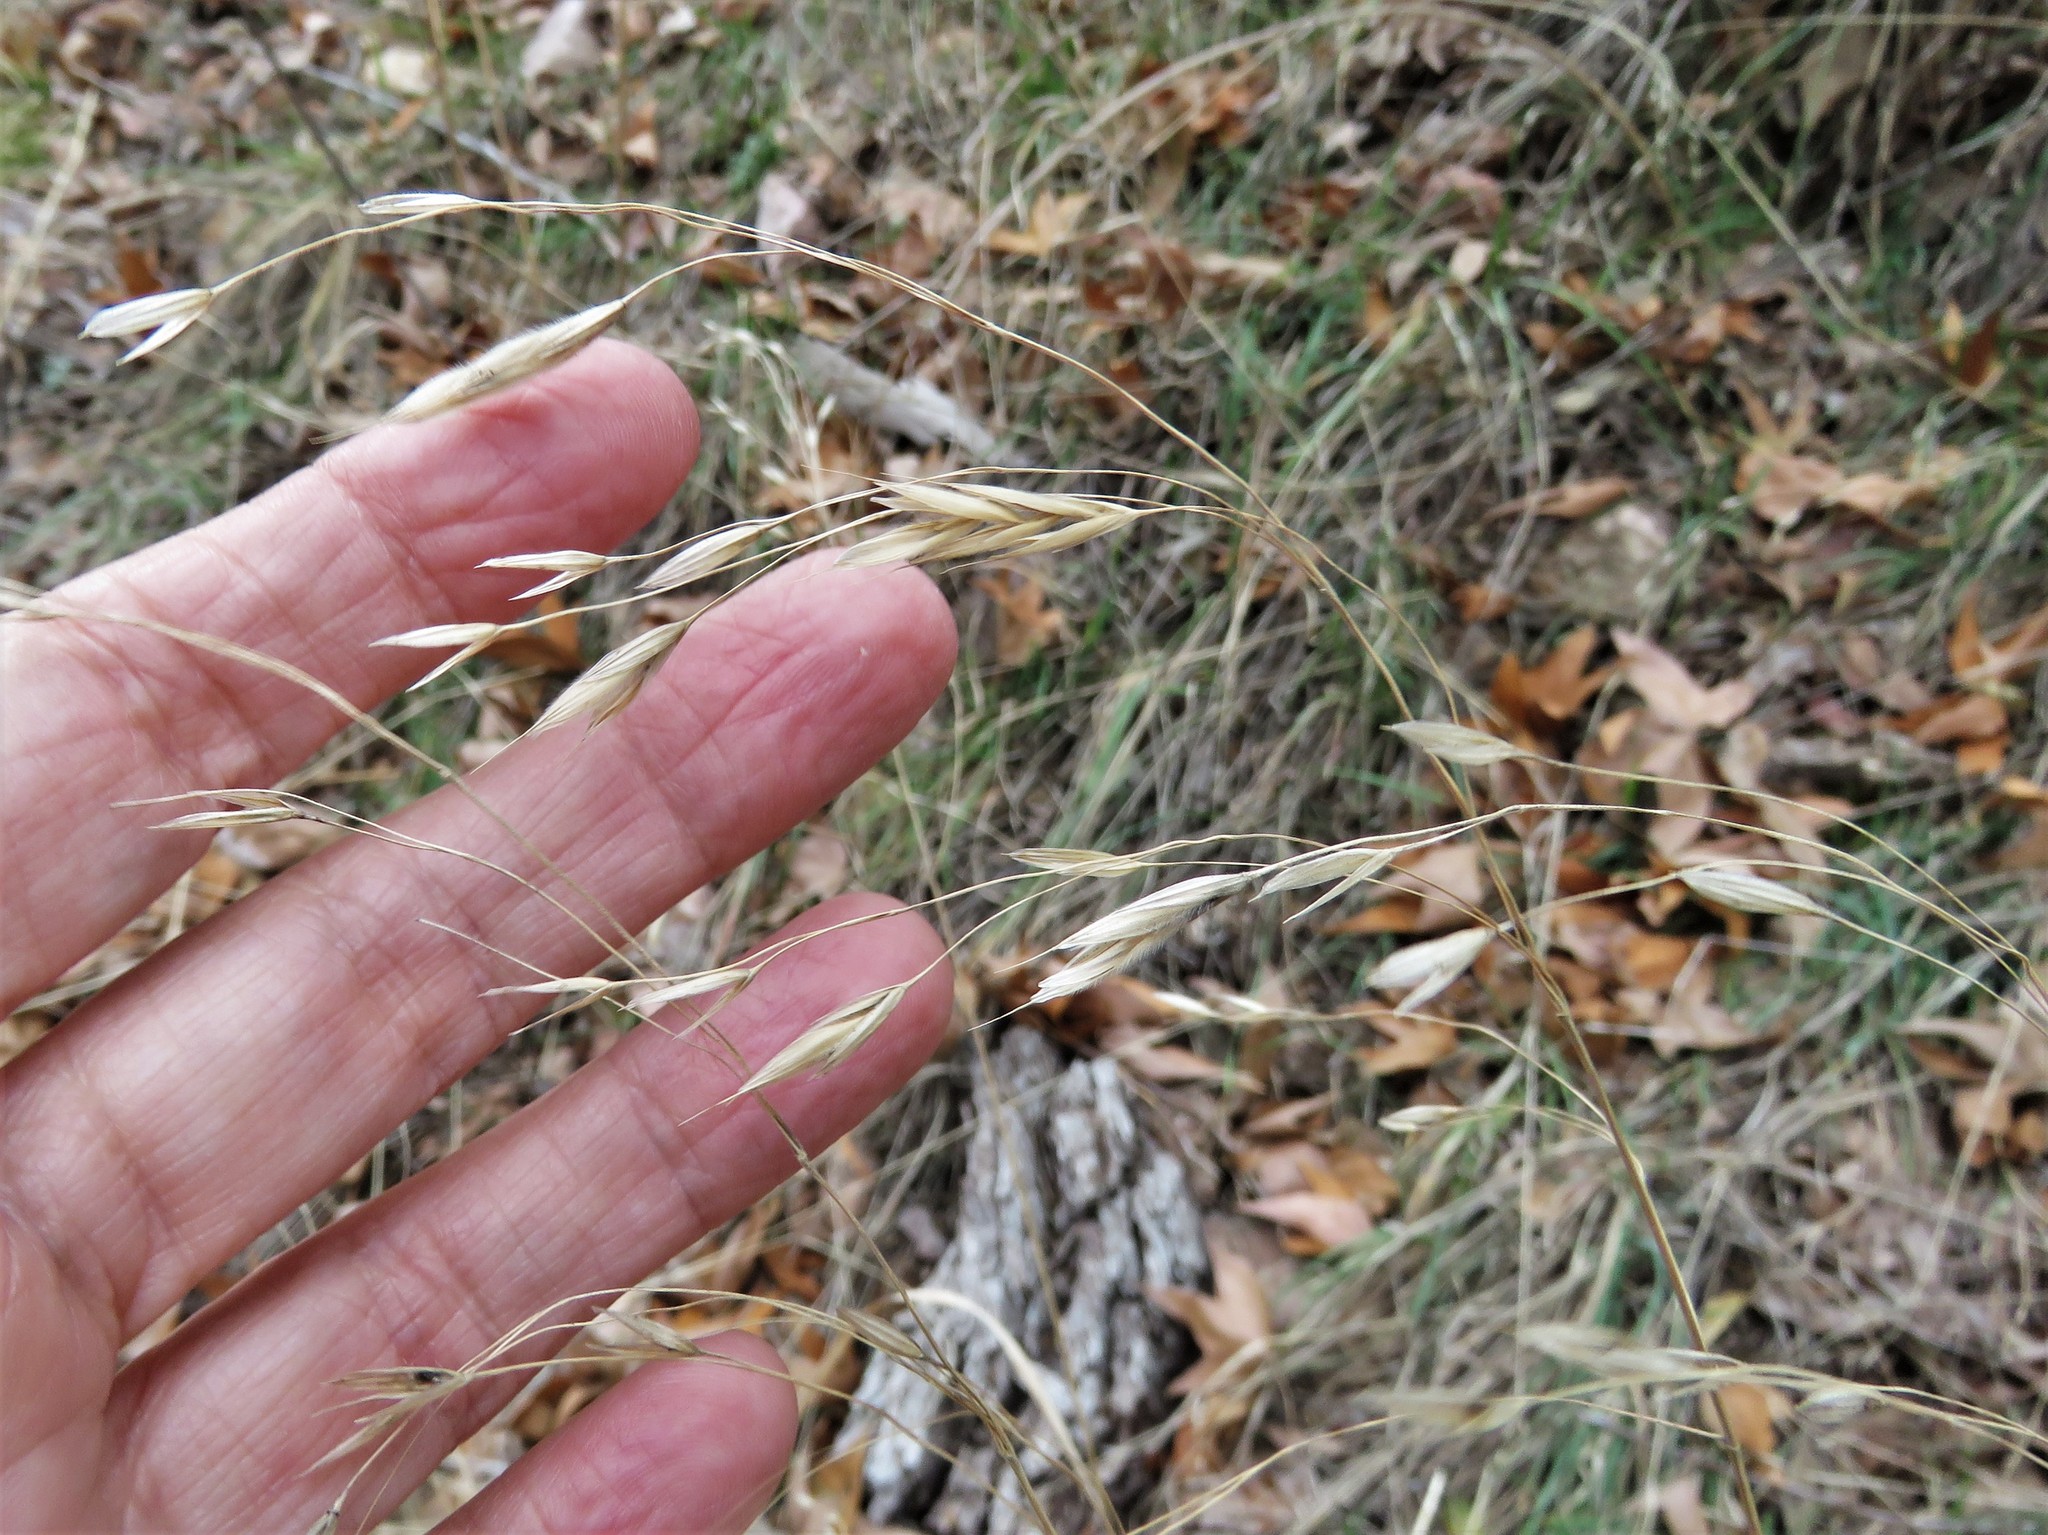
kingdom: Plantae
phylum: Tracheophyta
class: Liliopsida
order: Poales
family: Poaceae
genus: Avena
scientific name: Avena fatua
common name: Wild oat
